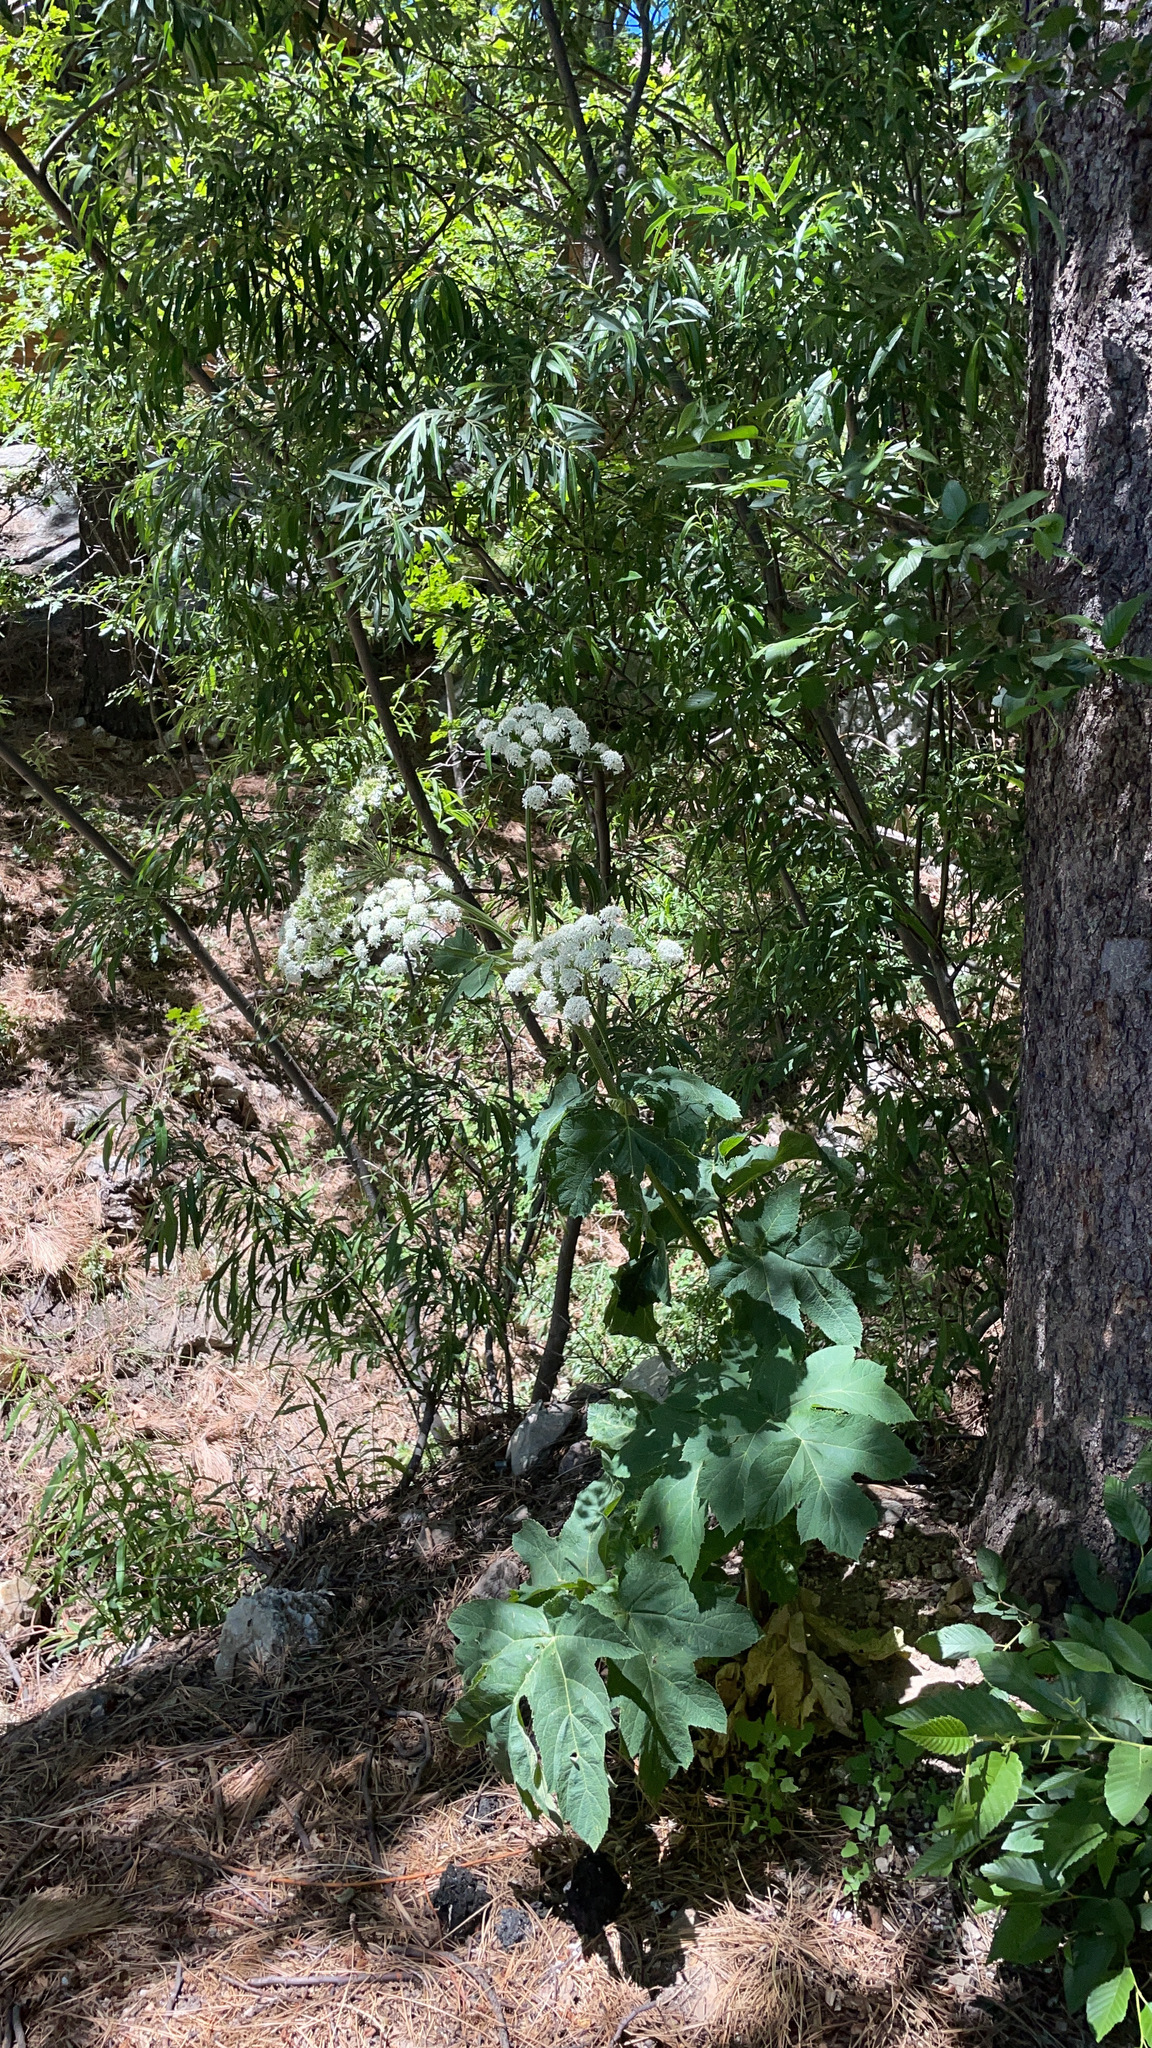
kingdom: Plantae
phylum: Tracheophyta
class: Magnoliopsida
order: Apiales
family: Apiaceae
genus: Heracleum
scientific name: Heracleum maximum
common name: American cow parsnip
